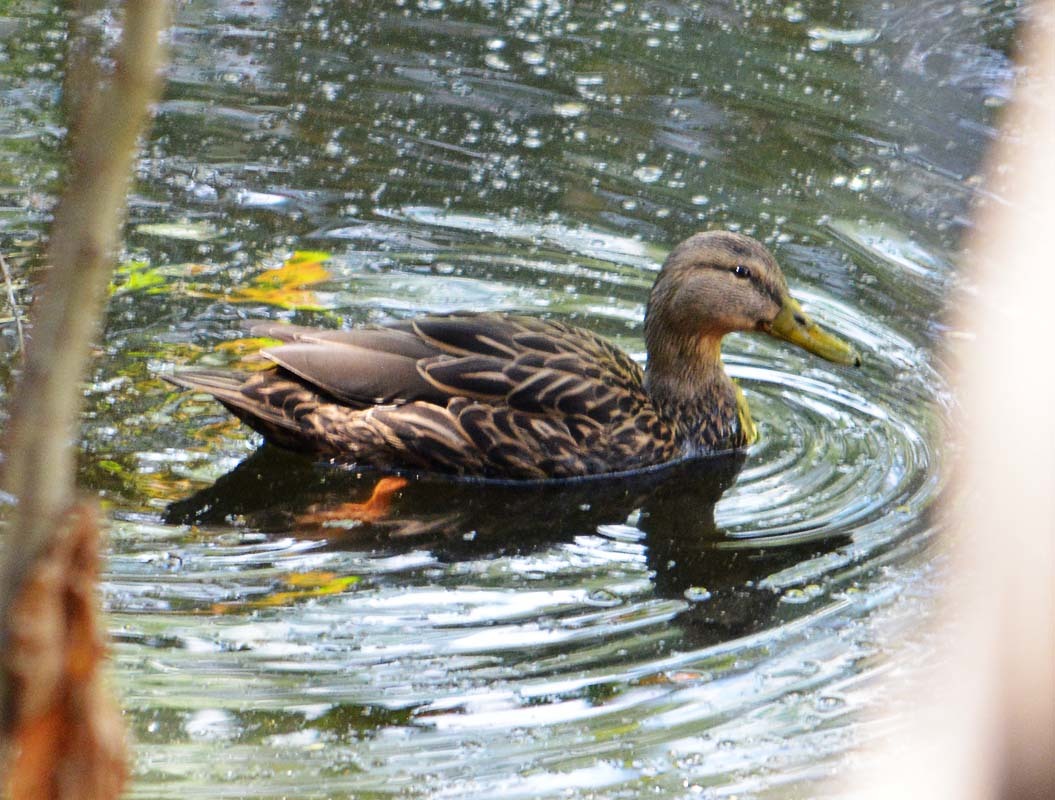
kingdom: Animalia
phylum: Chordata
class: Aves
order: Anseriformes
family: Anatidae
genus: Anas
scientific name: Anas diazi
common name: Mexican duck
